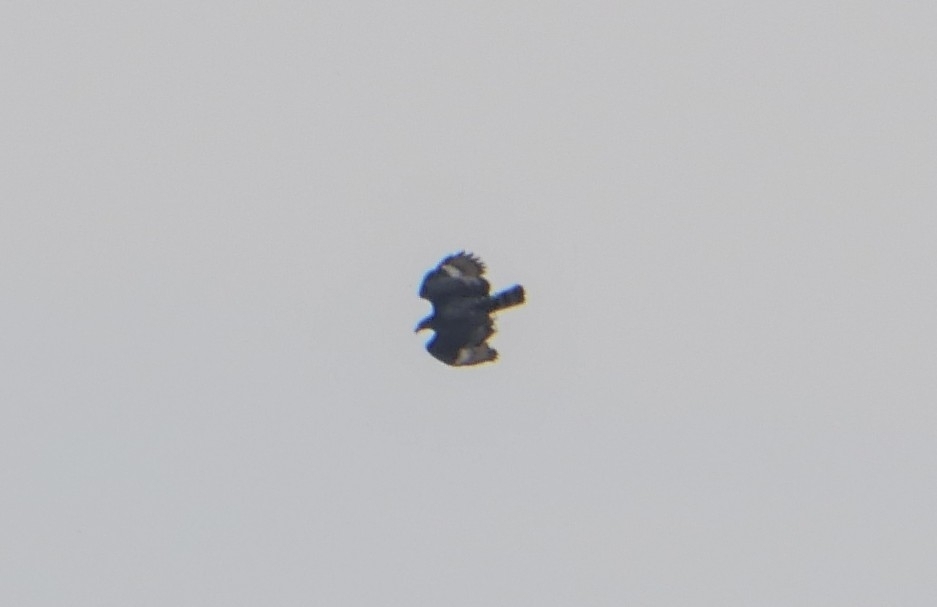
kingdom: Animalia
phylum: Chordata
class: Aves
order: Accipitriformes
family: Accipitridae
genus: Stephanoaetus
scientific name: Stephanoaetus coronatus
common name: Crowned eagle
